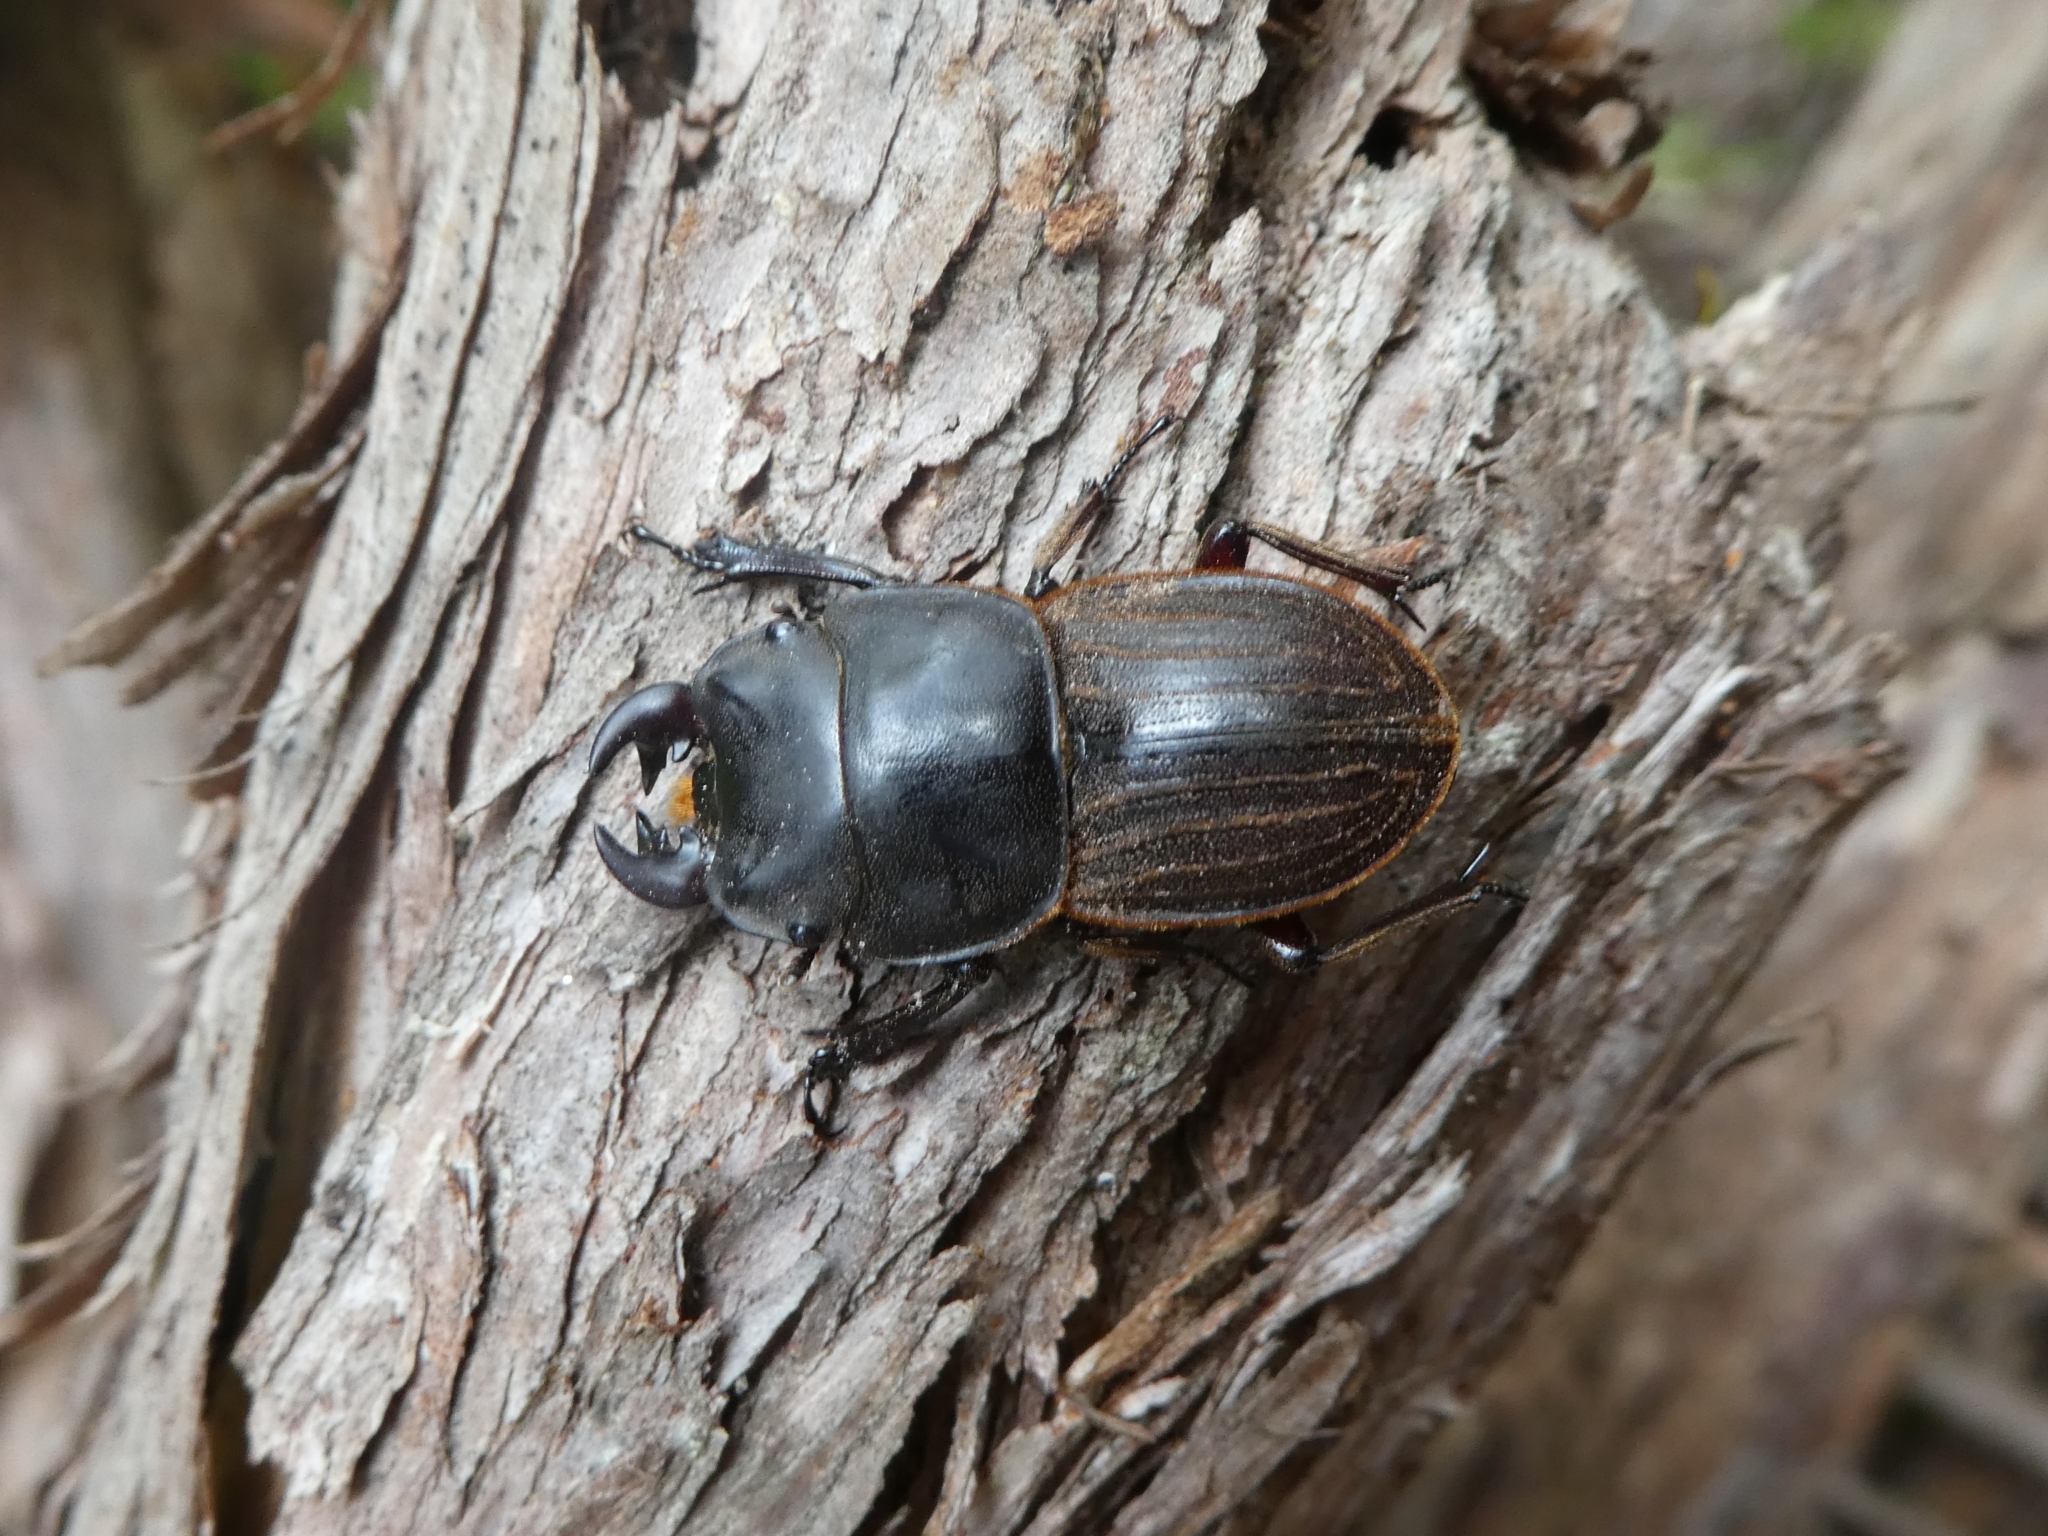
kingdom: Animalia
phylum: Arthropoda
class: Insecta
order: Coleoptera
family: Lucanidae
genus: Geodorcus
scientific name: Geodorcus helmsi
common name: Helm's stag beetle
